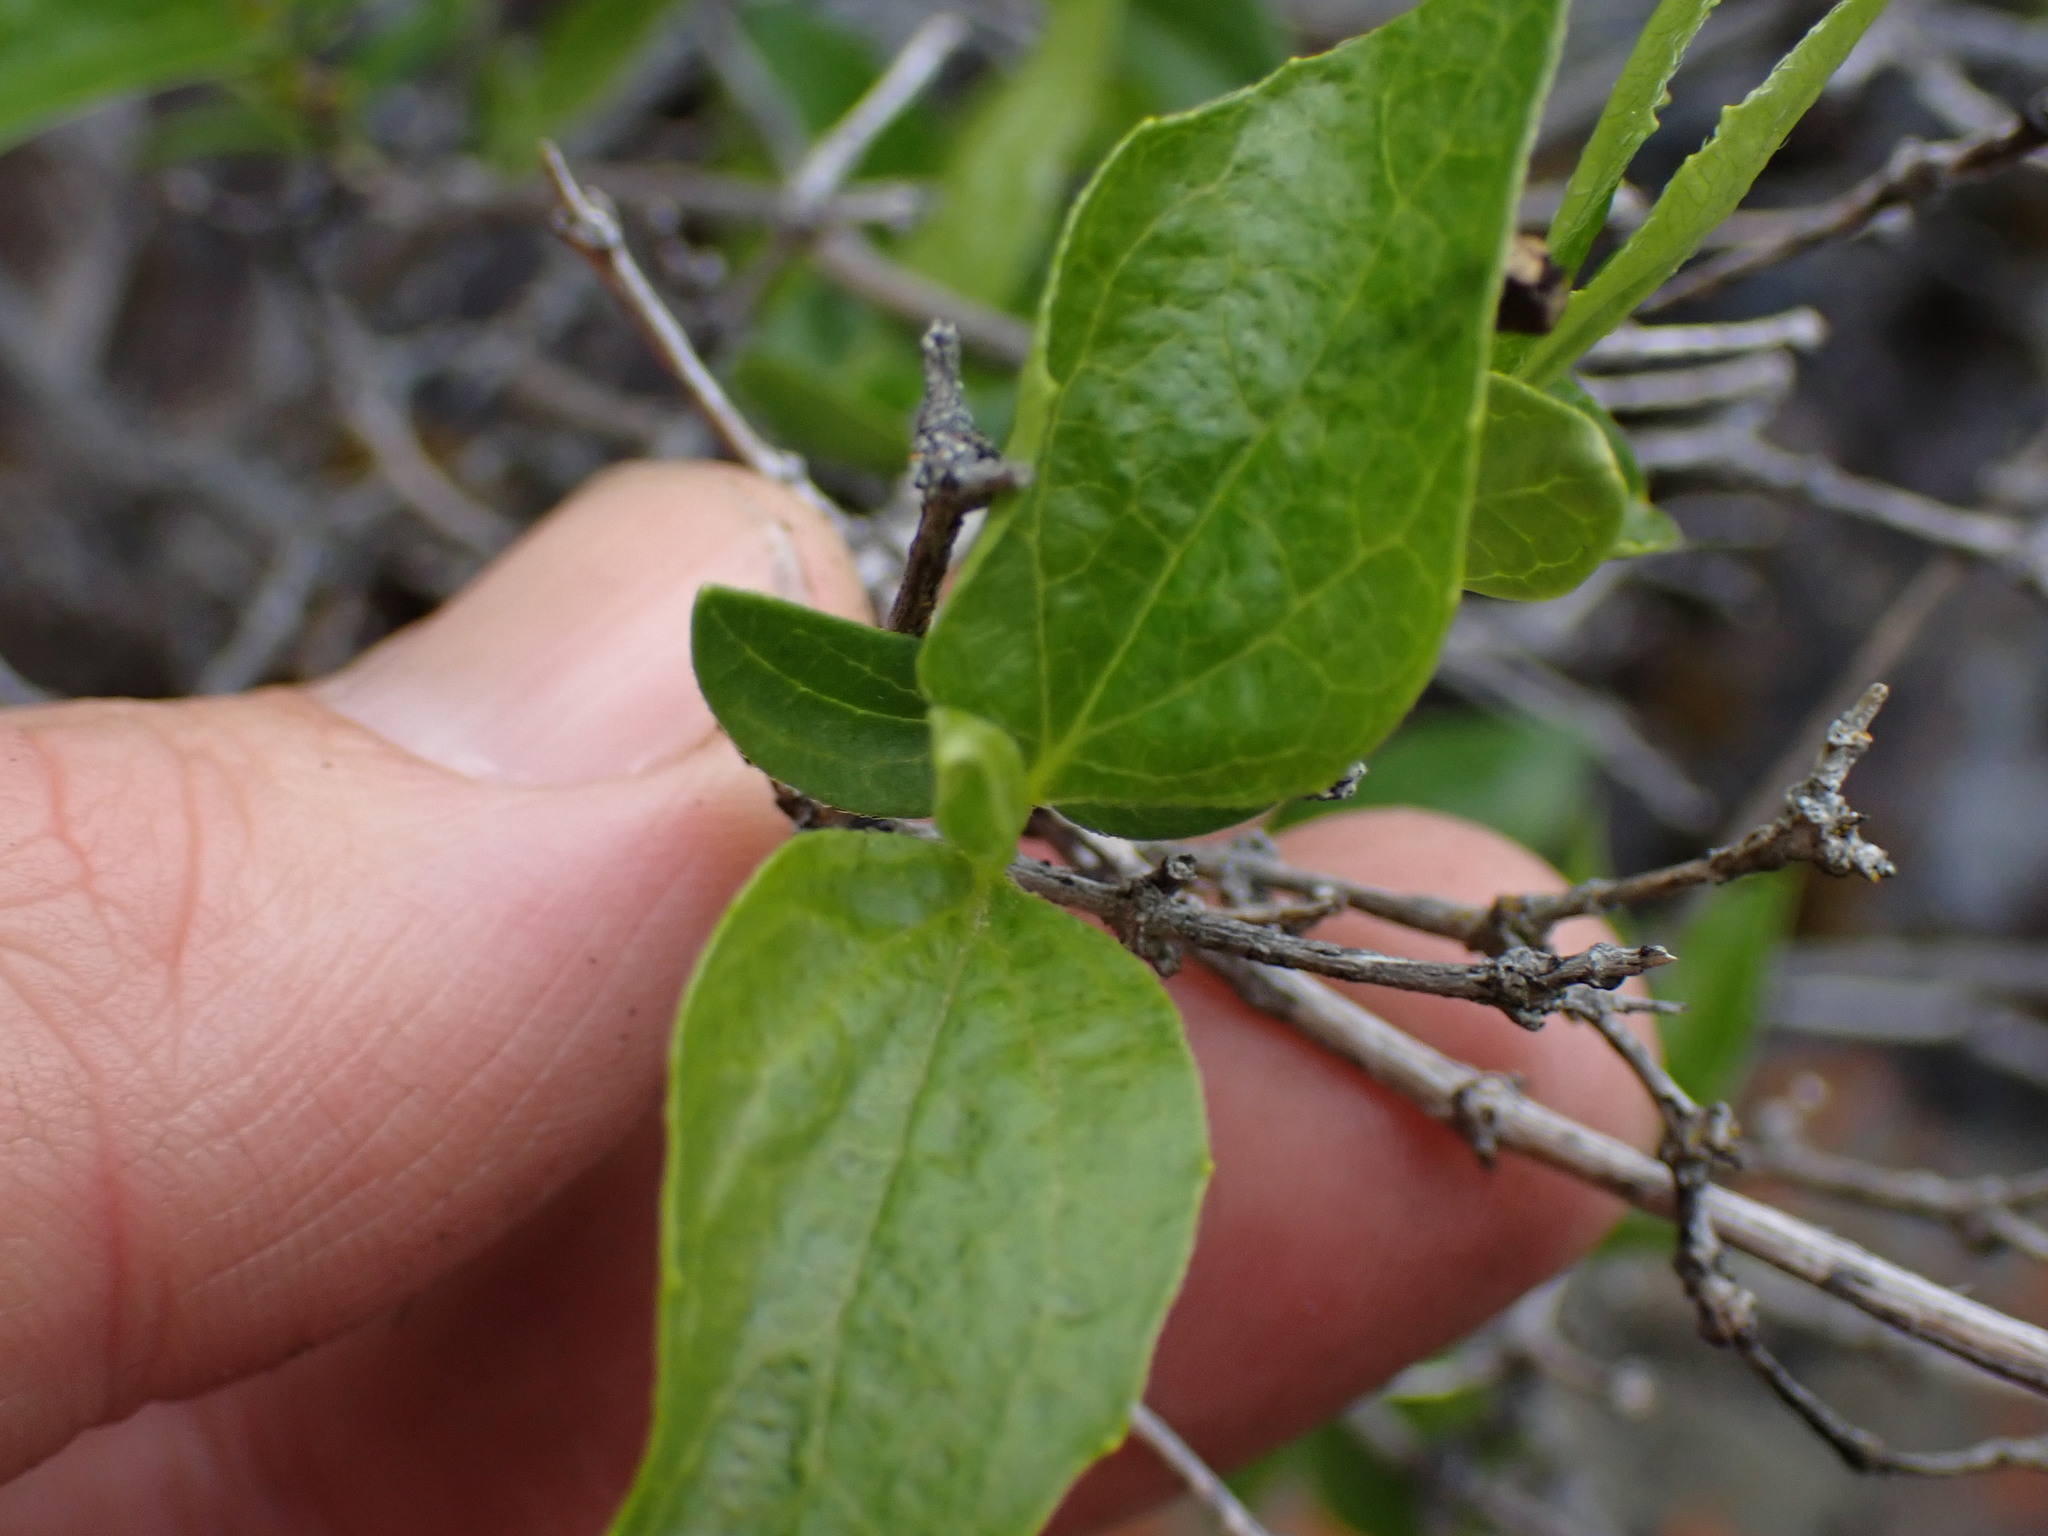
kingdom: Plantae
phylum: Tracheophyta
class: Magnoliopsida
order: Cornales
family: Hydrangeaceae
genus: Philadelphus
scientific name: Philadelphus lewisii
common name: Lewis's mock orange
